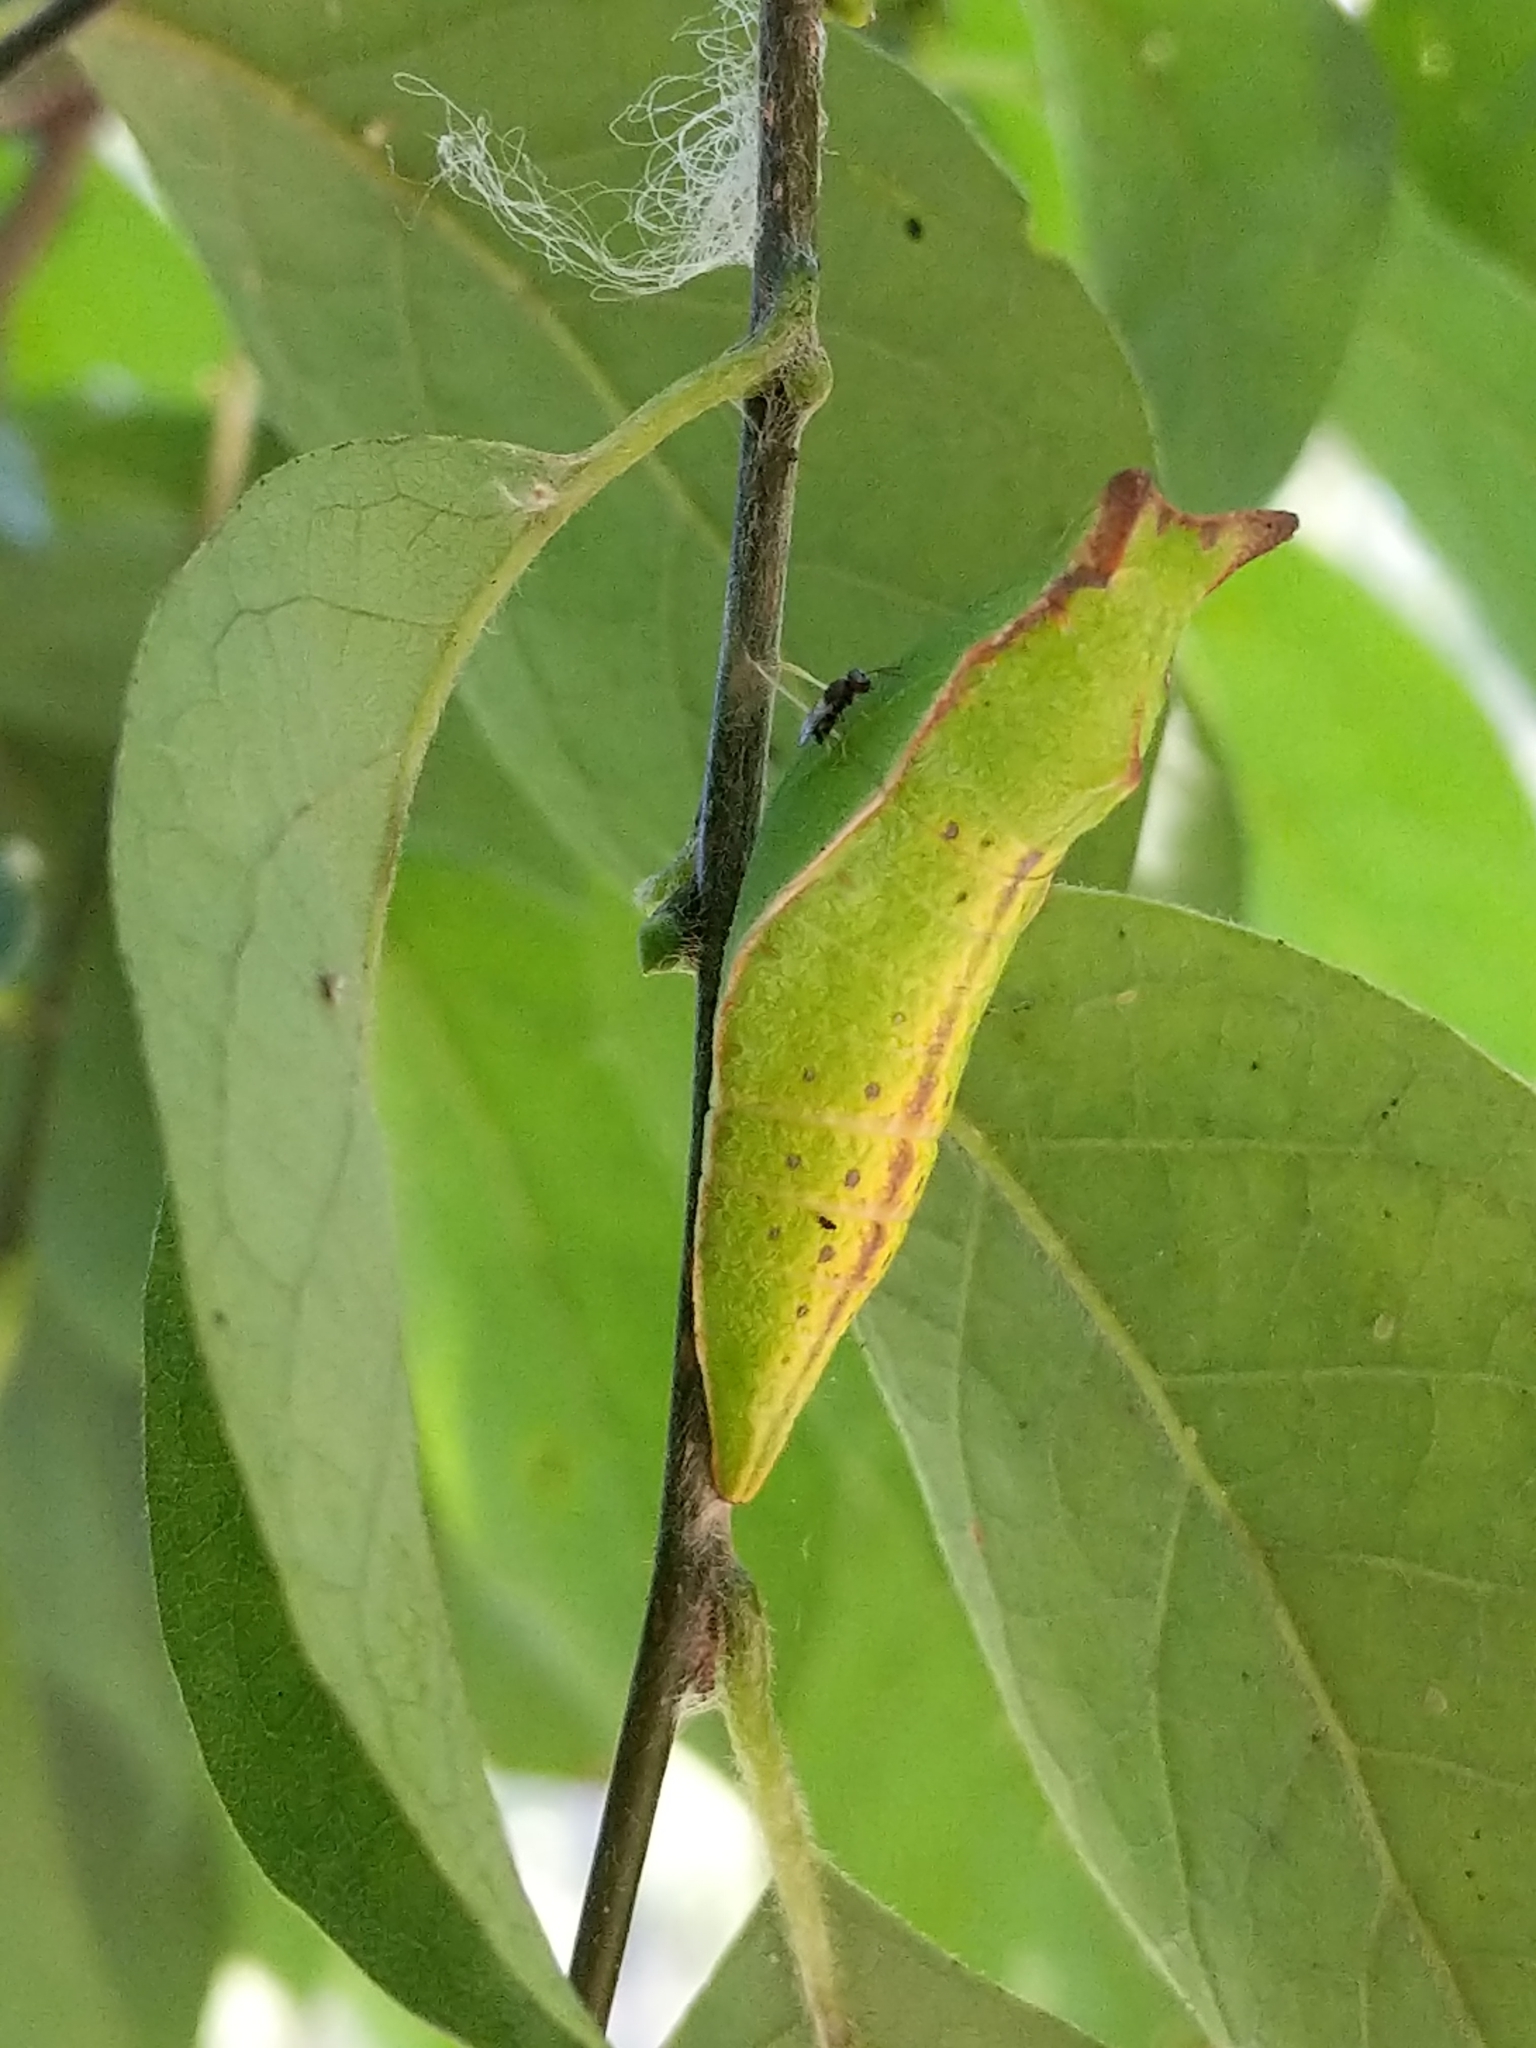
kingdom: Animalia
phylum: Arthropoda
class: Insecta
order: Lepidoptera
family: Papilionidae
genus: Papilio
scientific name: Papilio troilus
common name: Spicebush swallowtail
